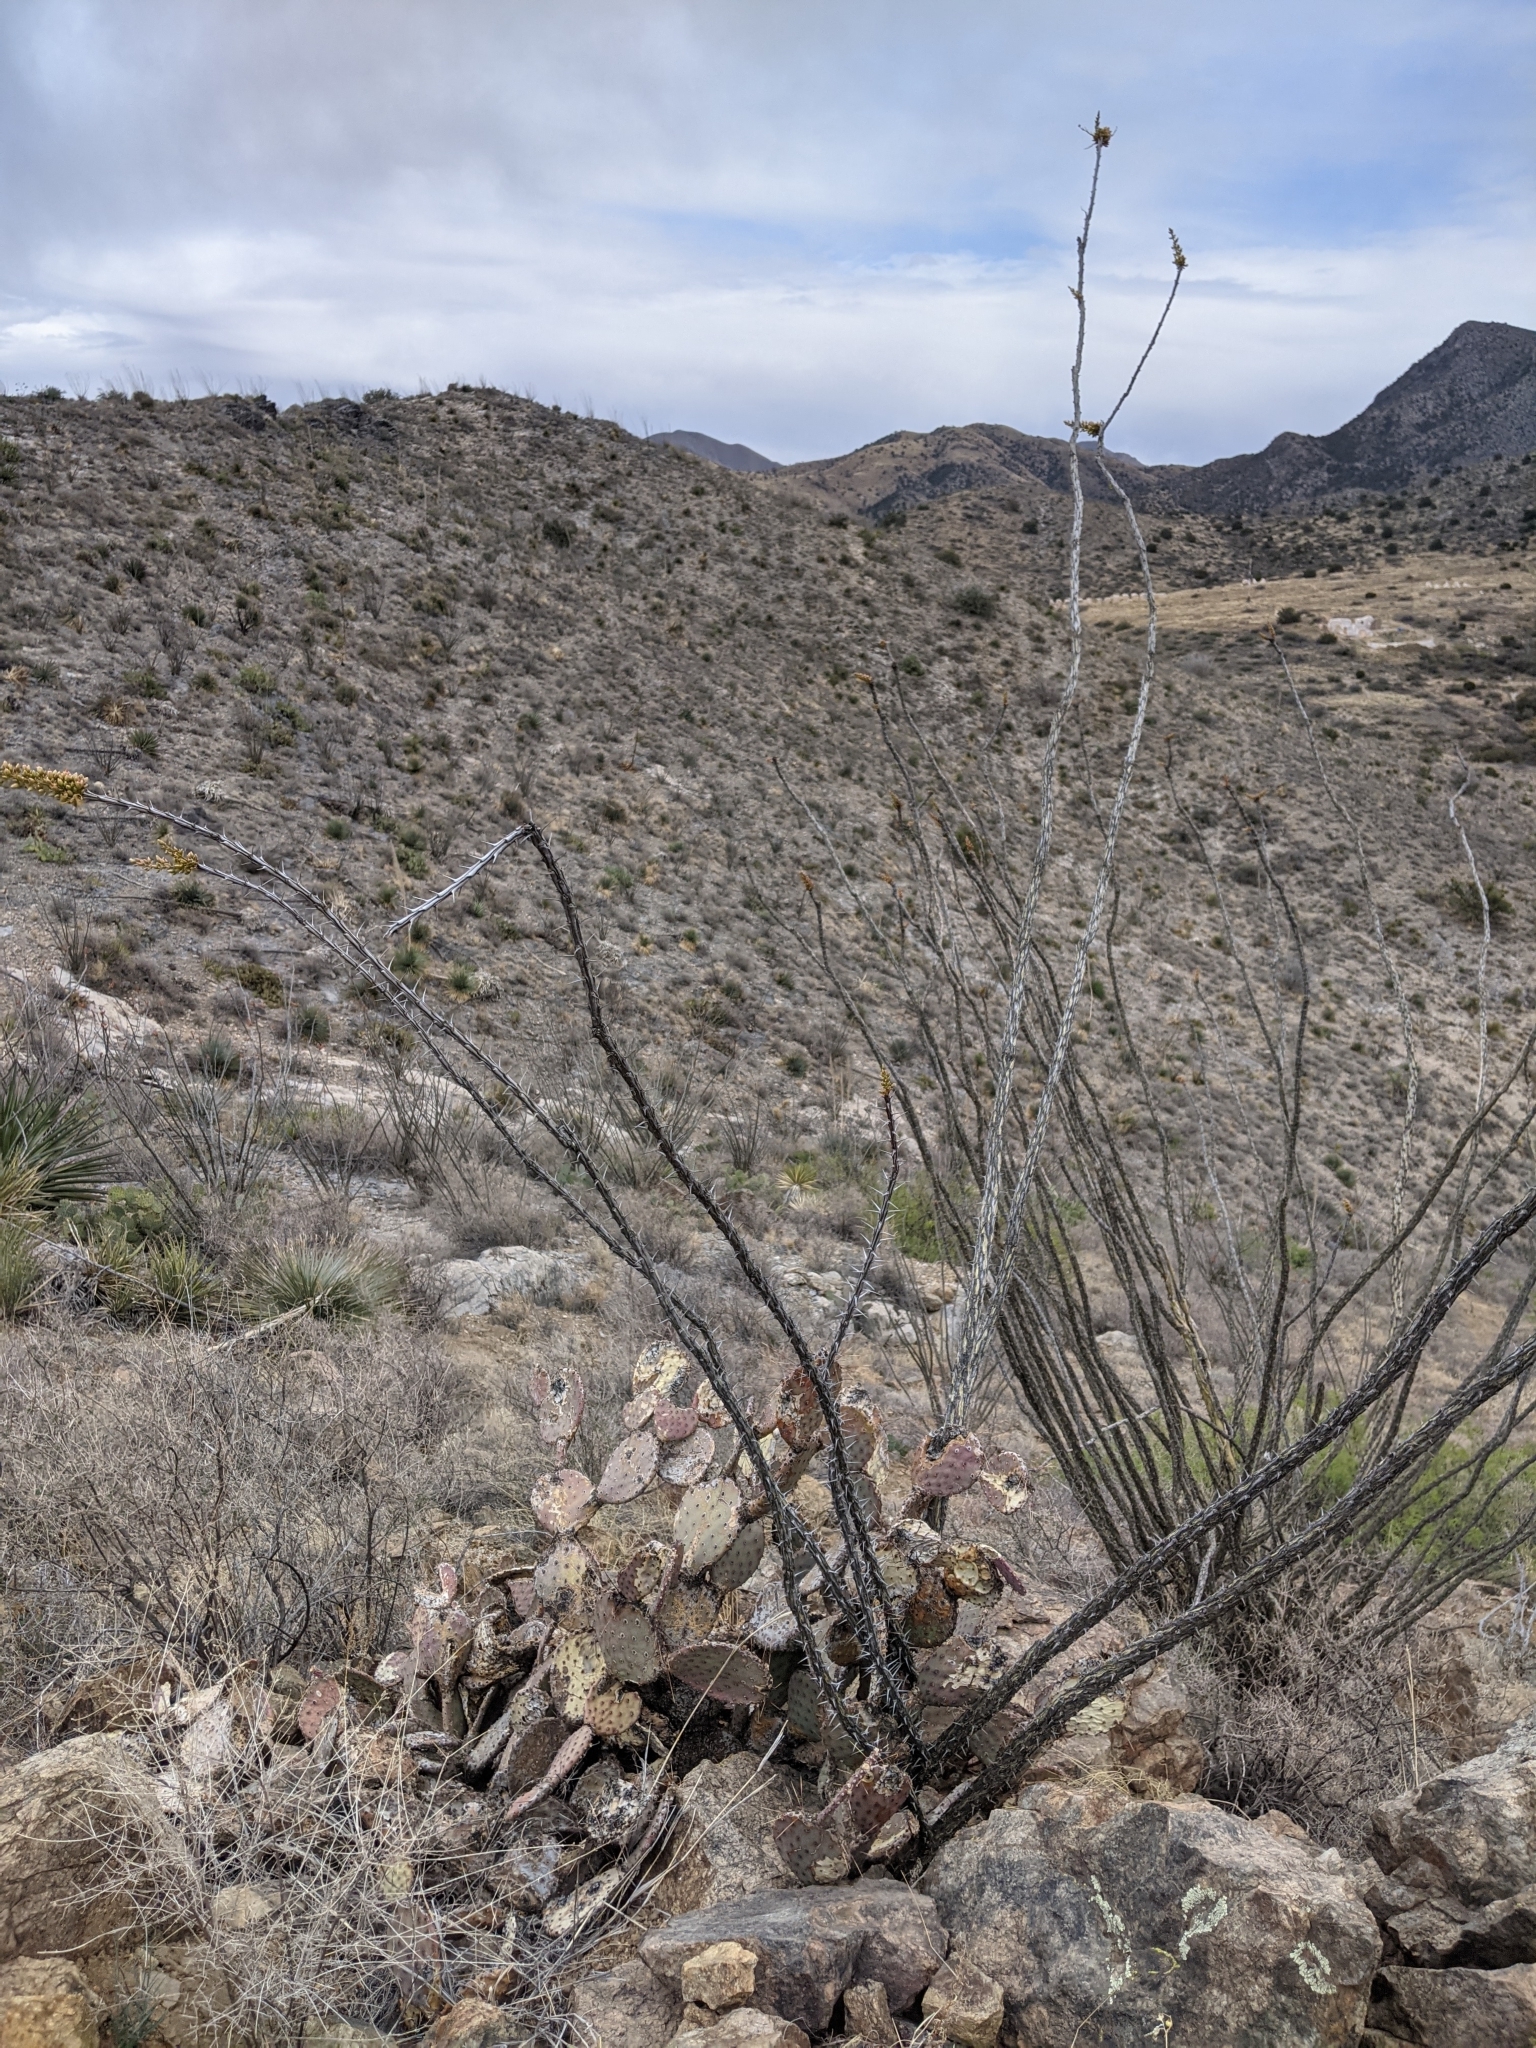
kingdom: Plantae
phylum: Tracheophyta
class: Magnoliopsida
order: Ericales
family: Fouquieriaceae
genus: Fouquieria
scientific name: Fouquieria splendens
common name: Vine-cactus
